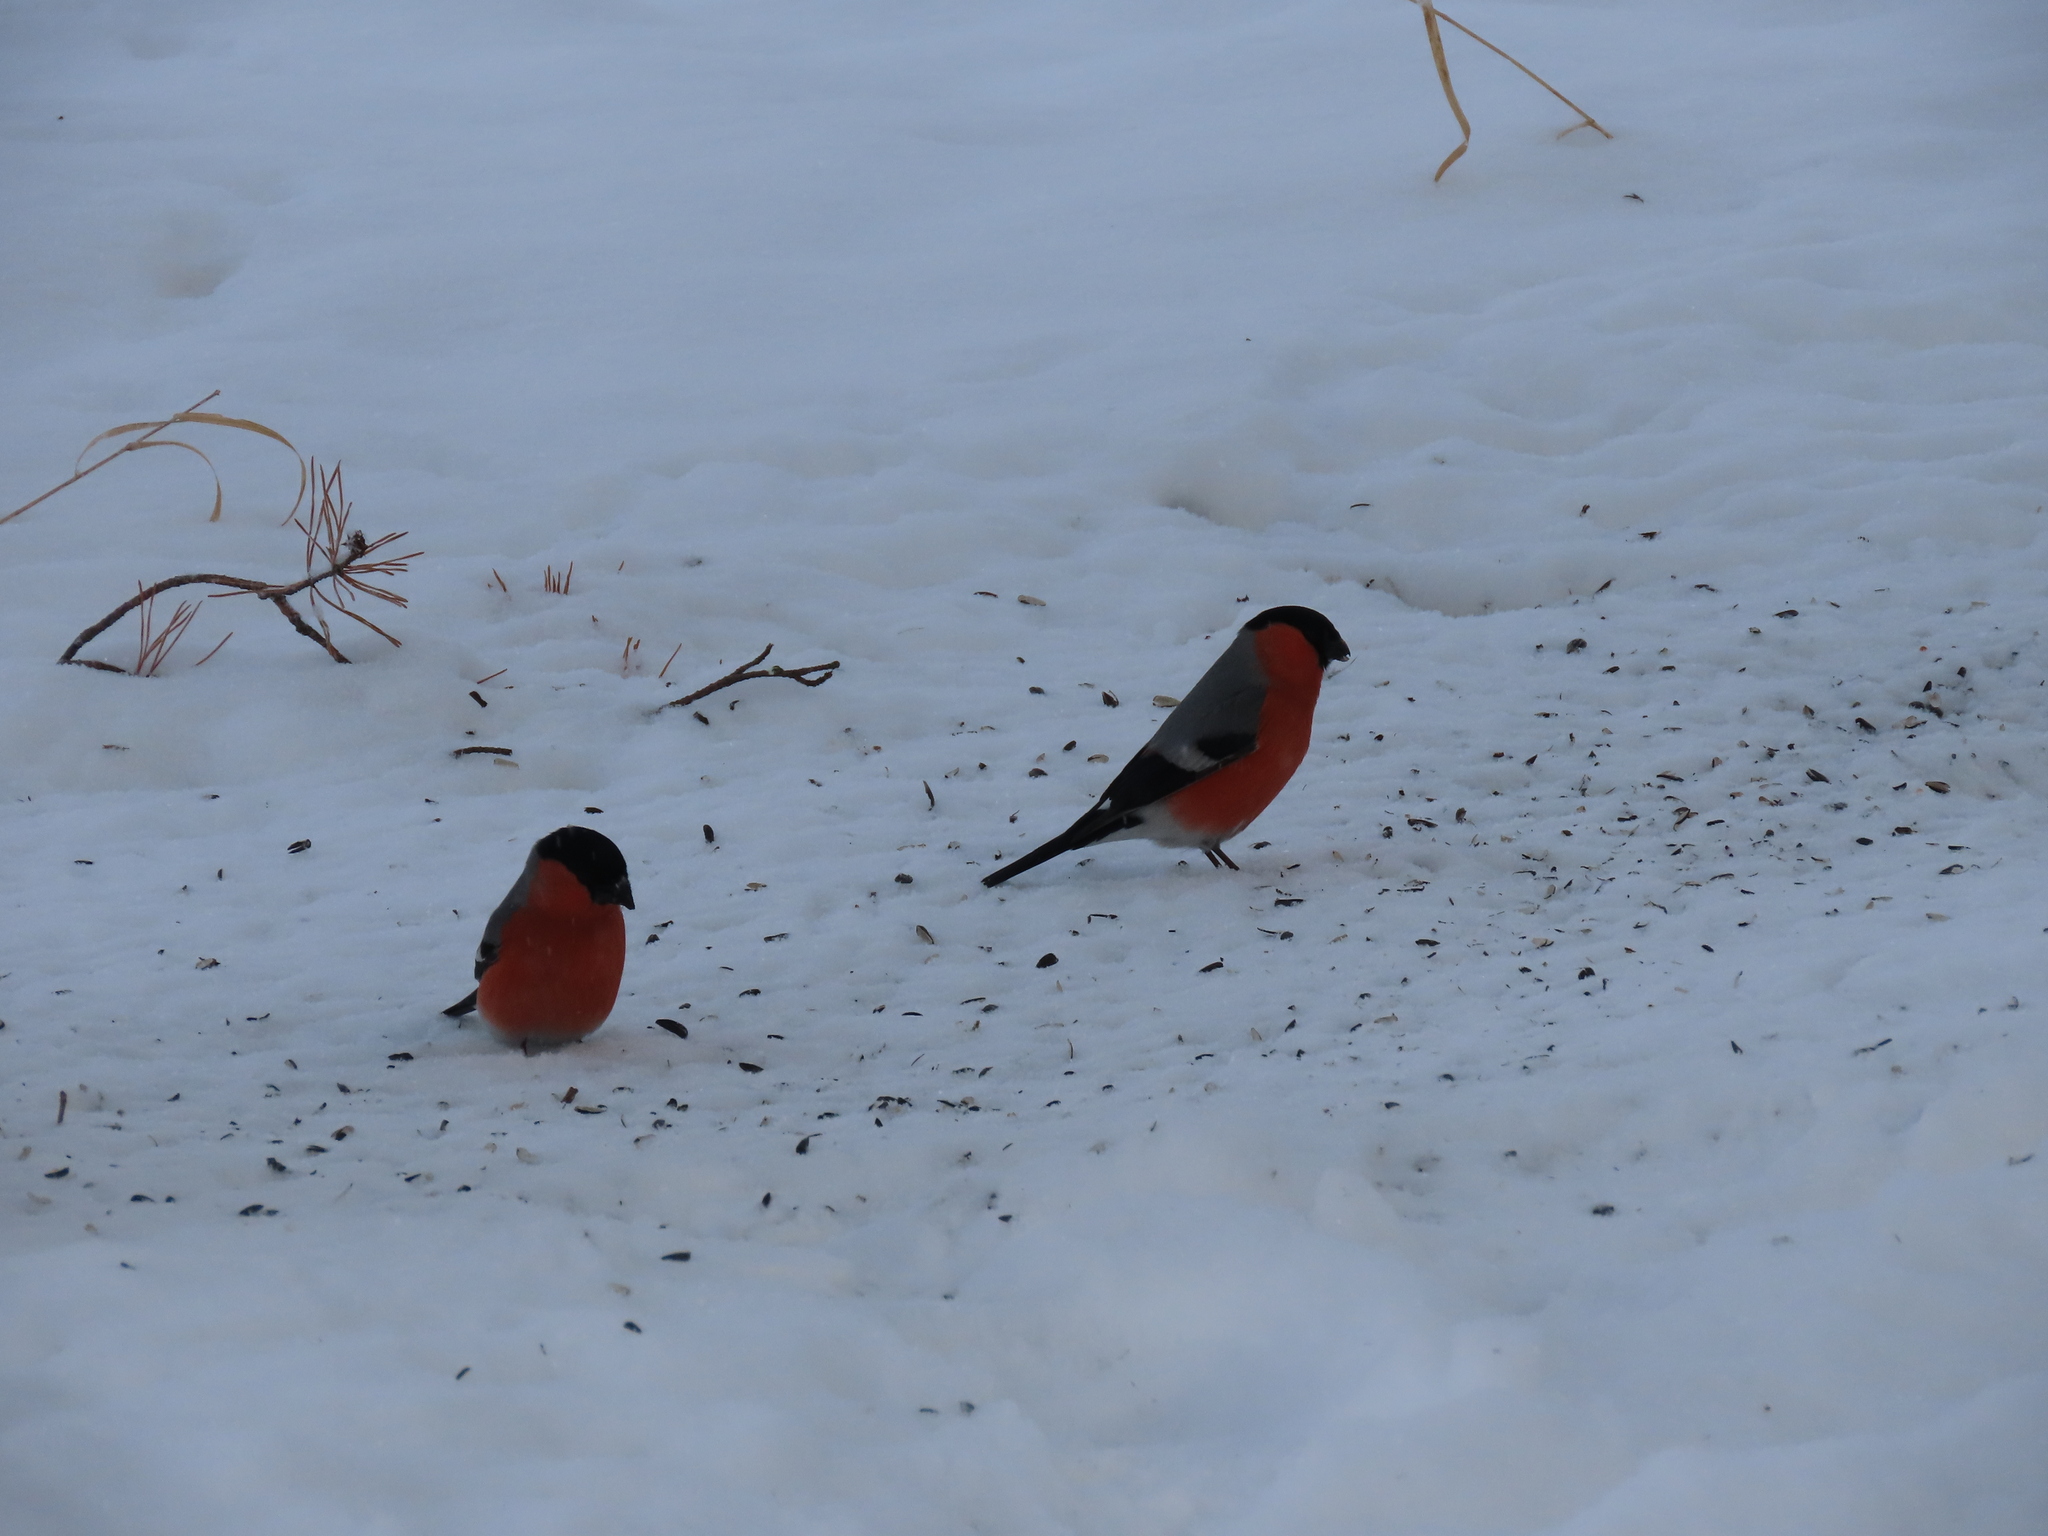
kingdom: Animalia
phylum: Chordata
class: Aves
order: Passeriformes
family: Fringillidae
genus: Pyrrhula
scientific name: Pyrrhula pyrrhula
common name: Eurasian bullfinch
